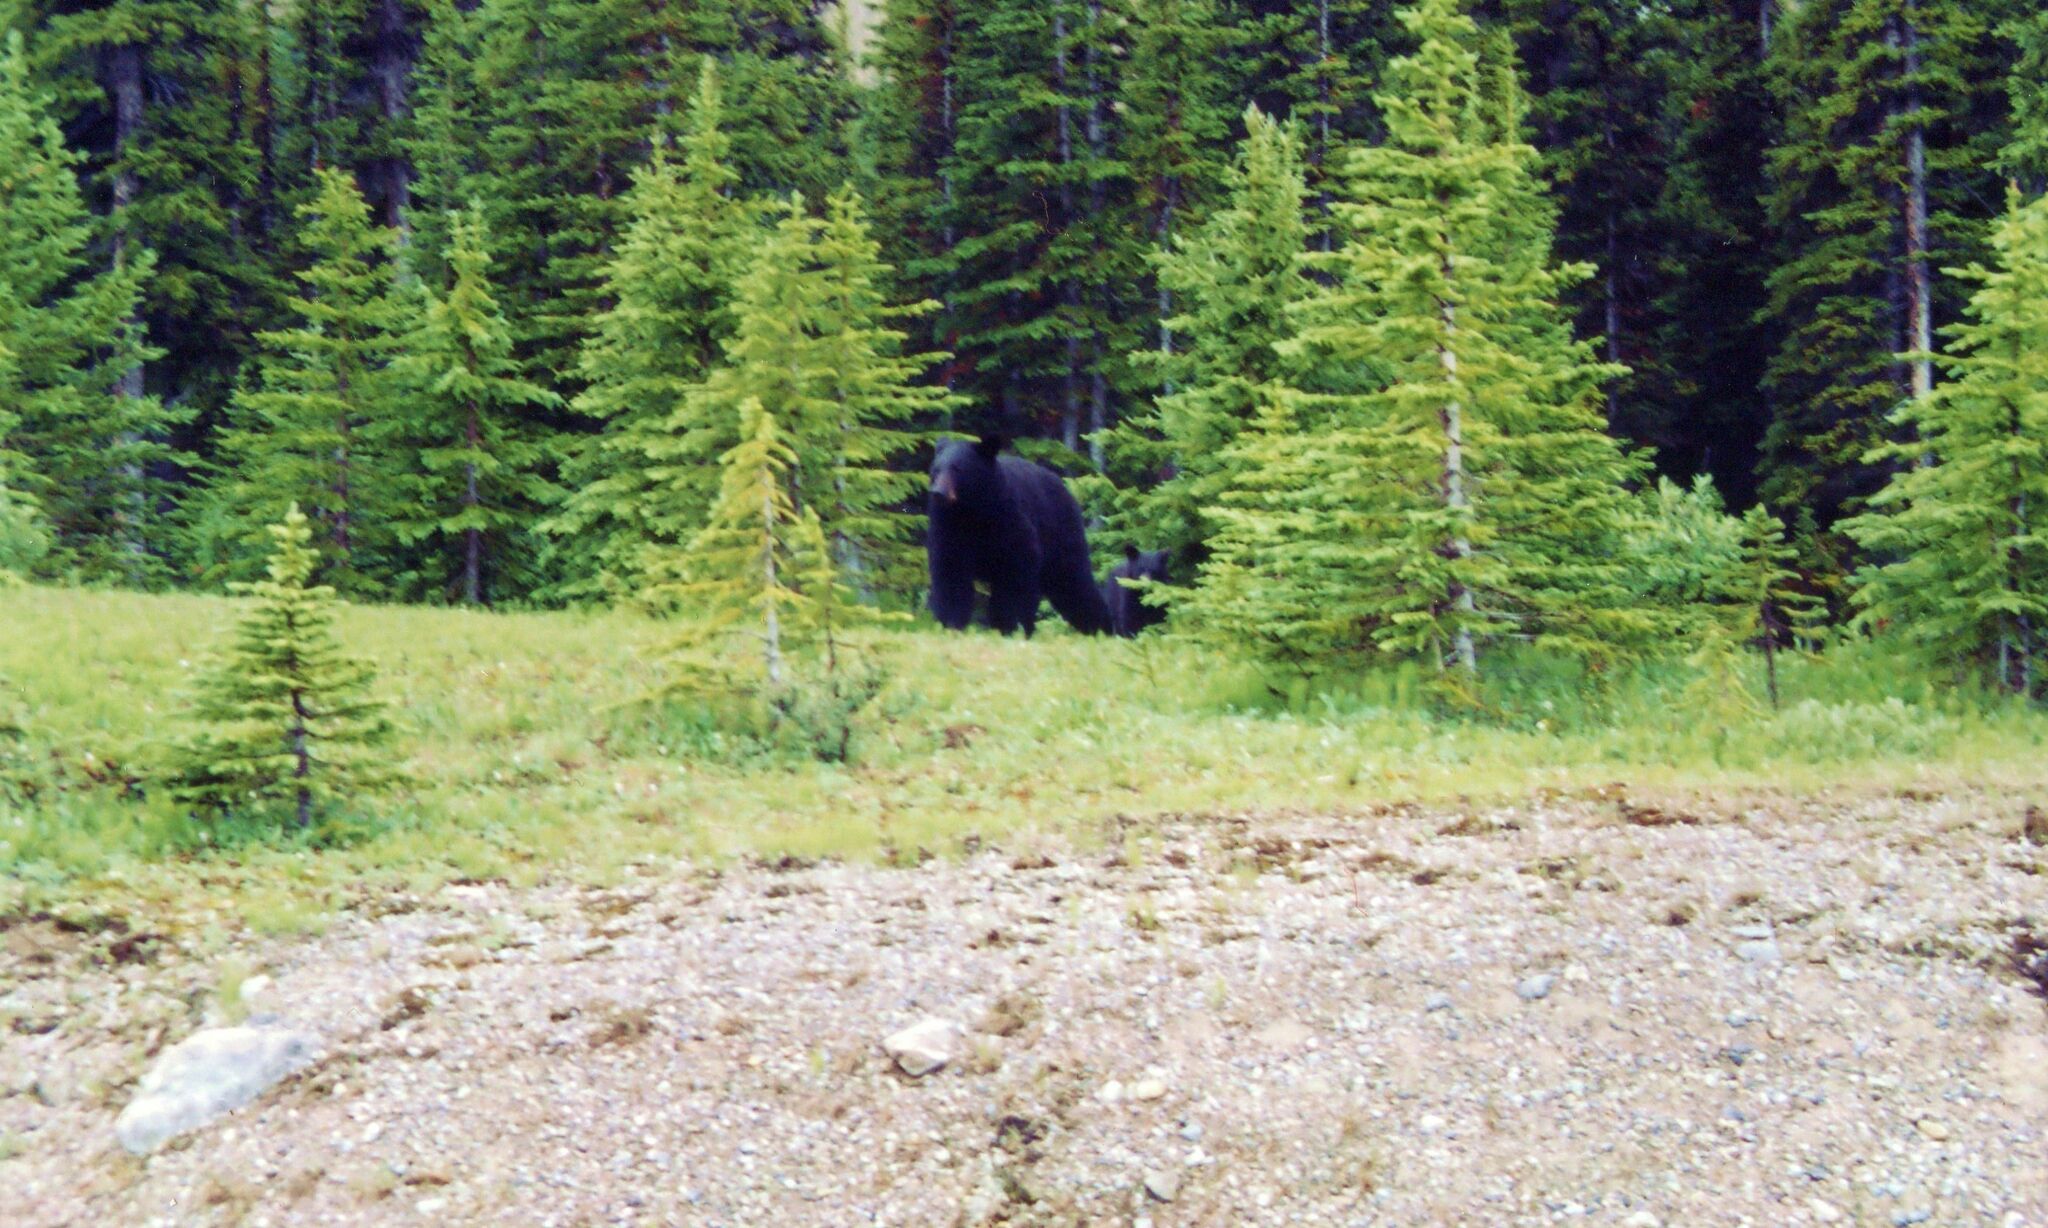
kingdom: Animalia
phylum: Chordata
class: Mammalia
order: Carnivora
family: Ursidae
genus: Ursus
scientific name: Ursus americanus
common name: American black bear
